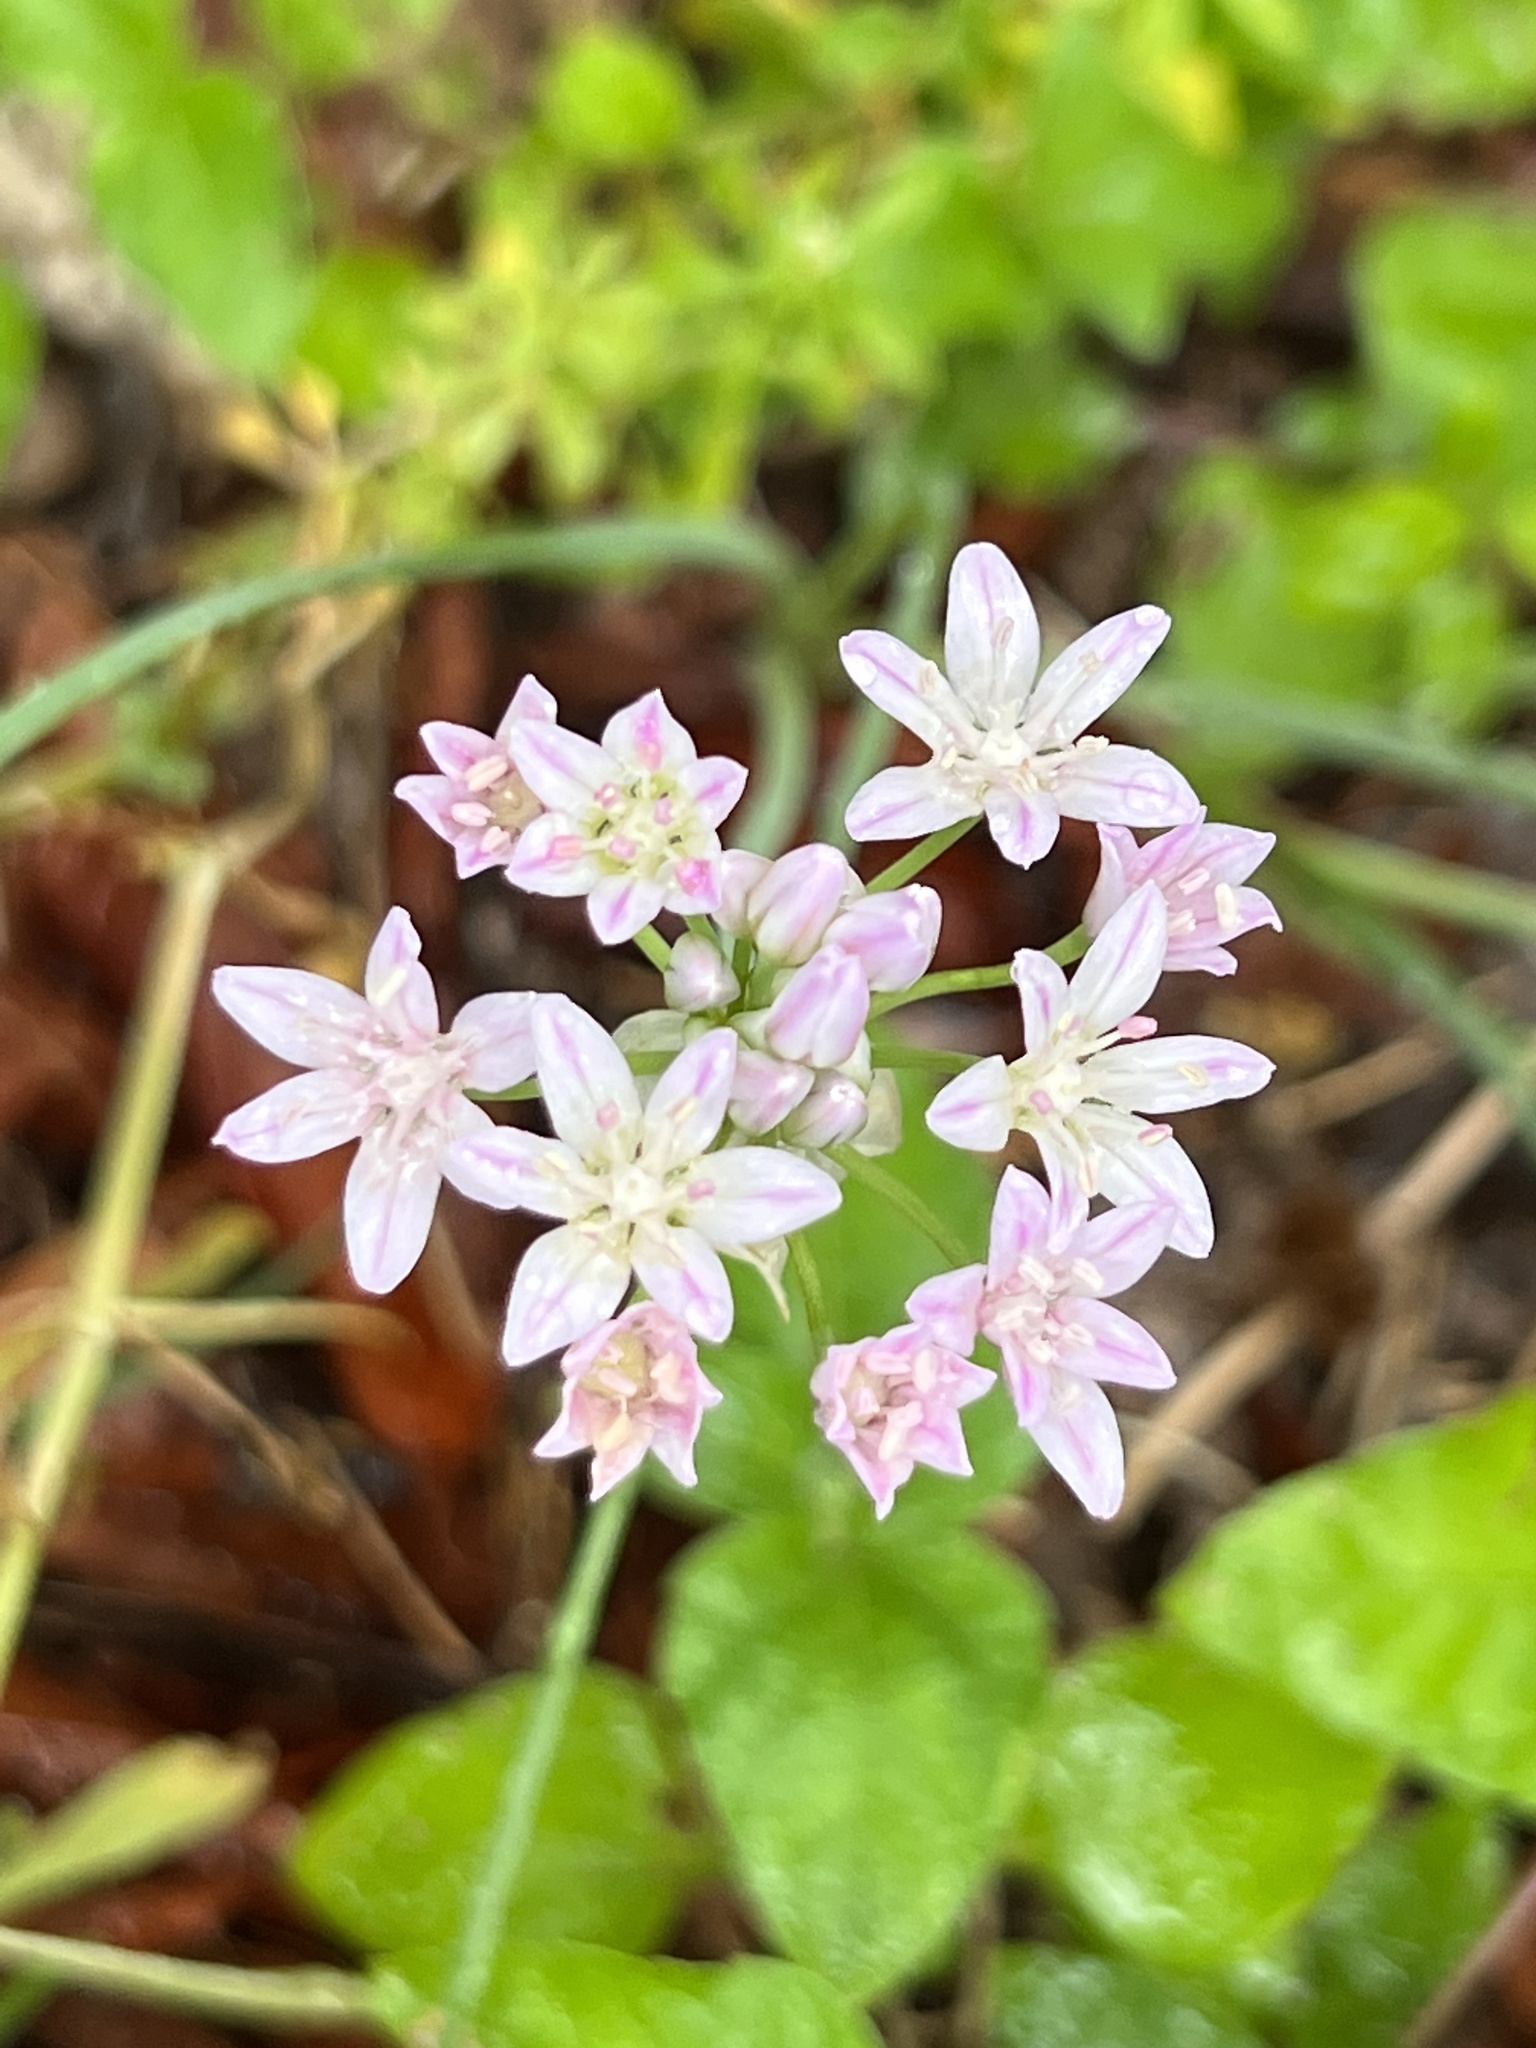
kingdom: Plantae
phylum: Tracheophyta
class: Liliopsida
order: Asparagales
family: Amaryllidaceae
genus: Allium
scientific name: Allium drummondii
